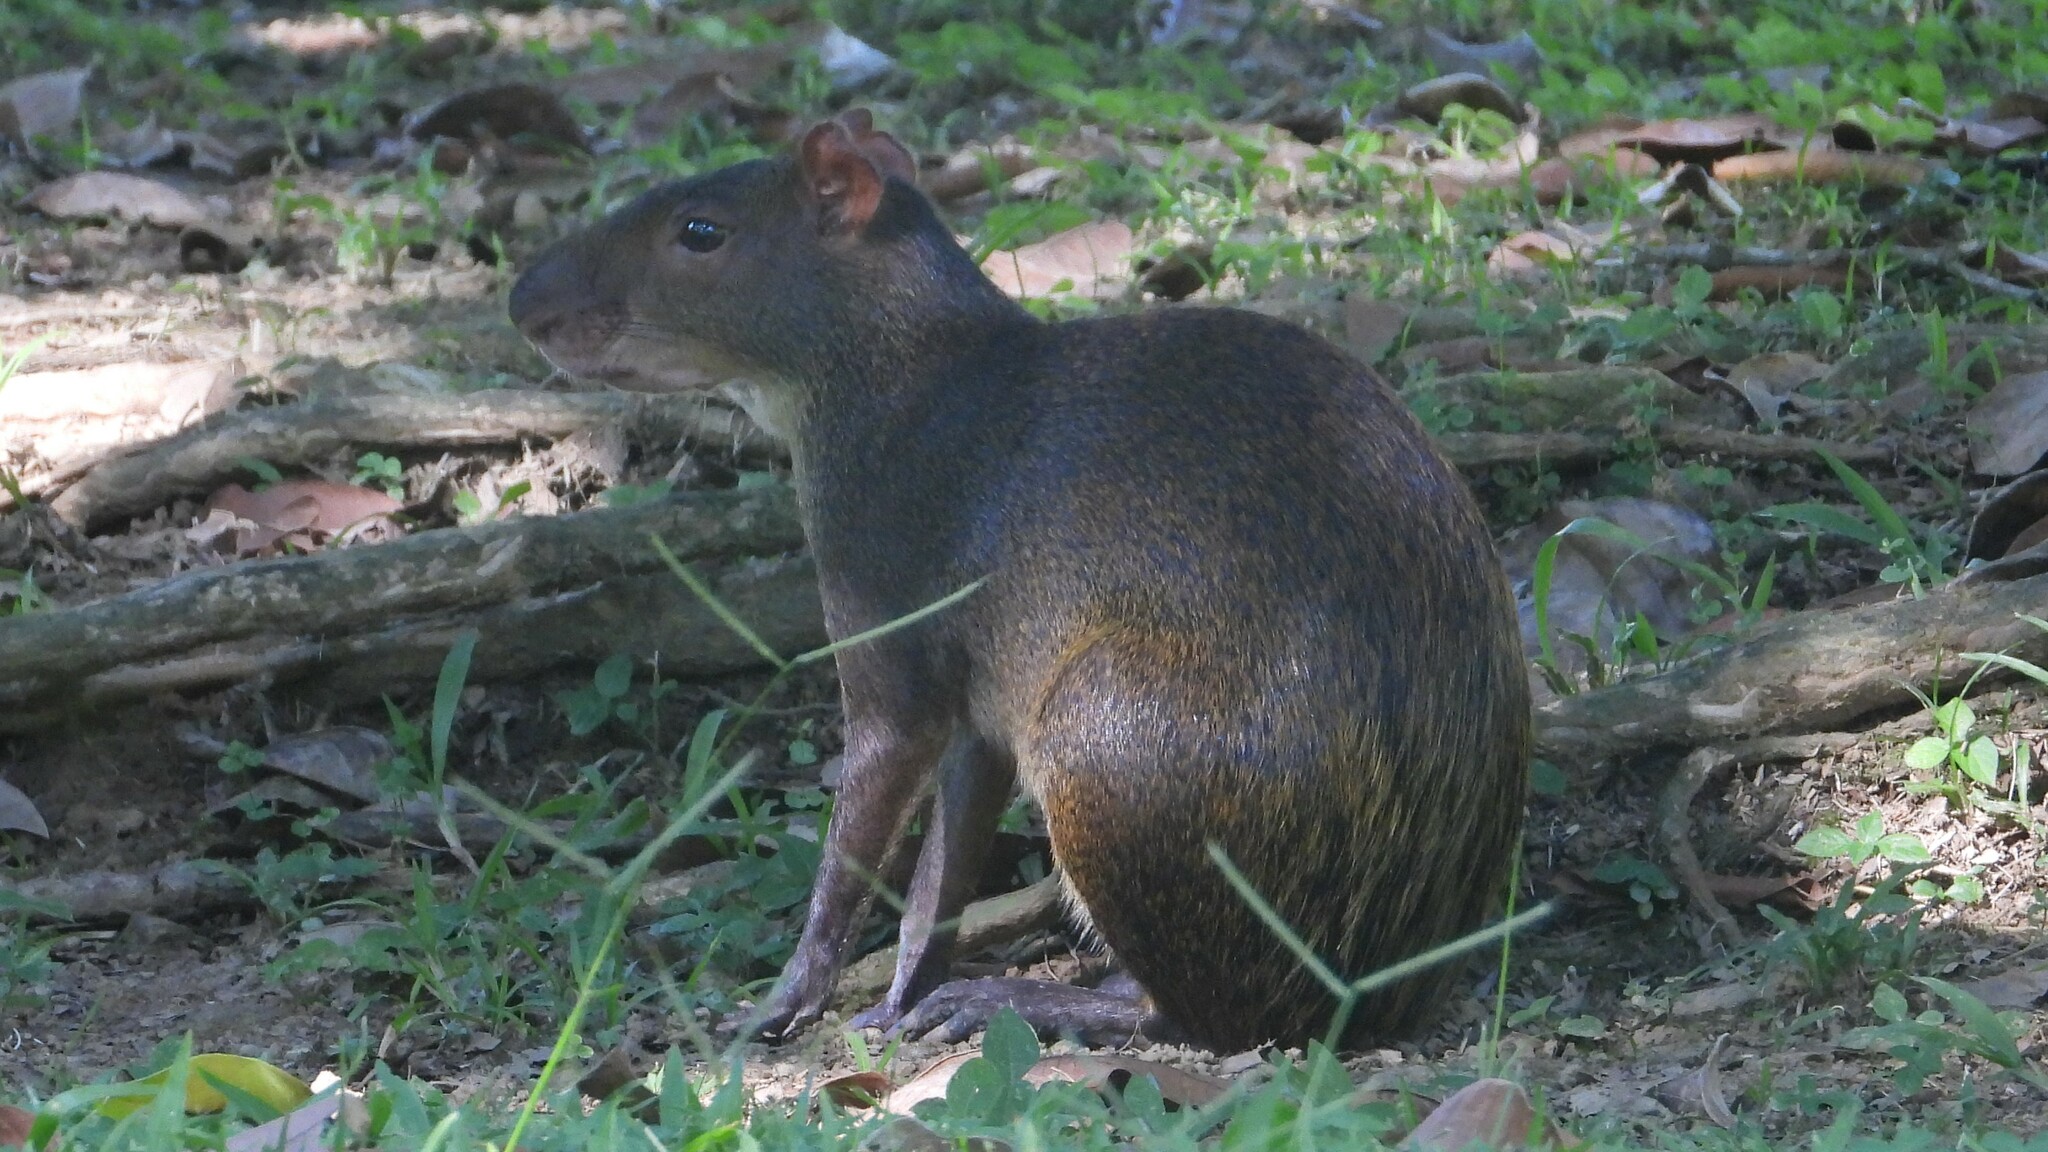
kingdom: Animalia
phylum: Chordata
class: Mammalia
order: Rodentia
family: Dasyproctidae
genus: Dasyprocta
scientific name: Dasyprocta punctata
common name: Central american agouti
